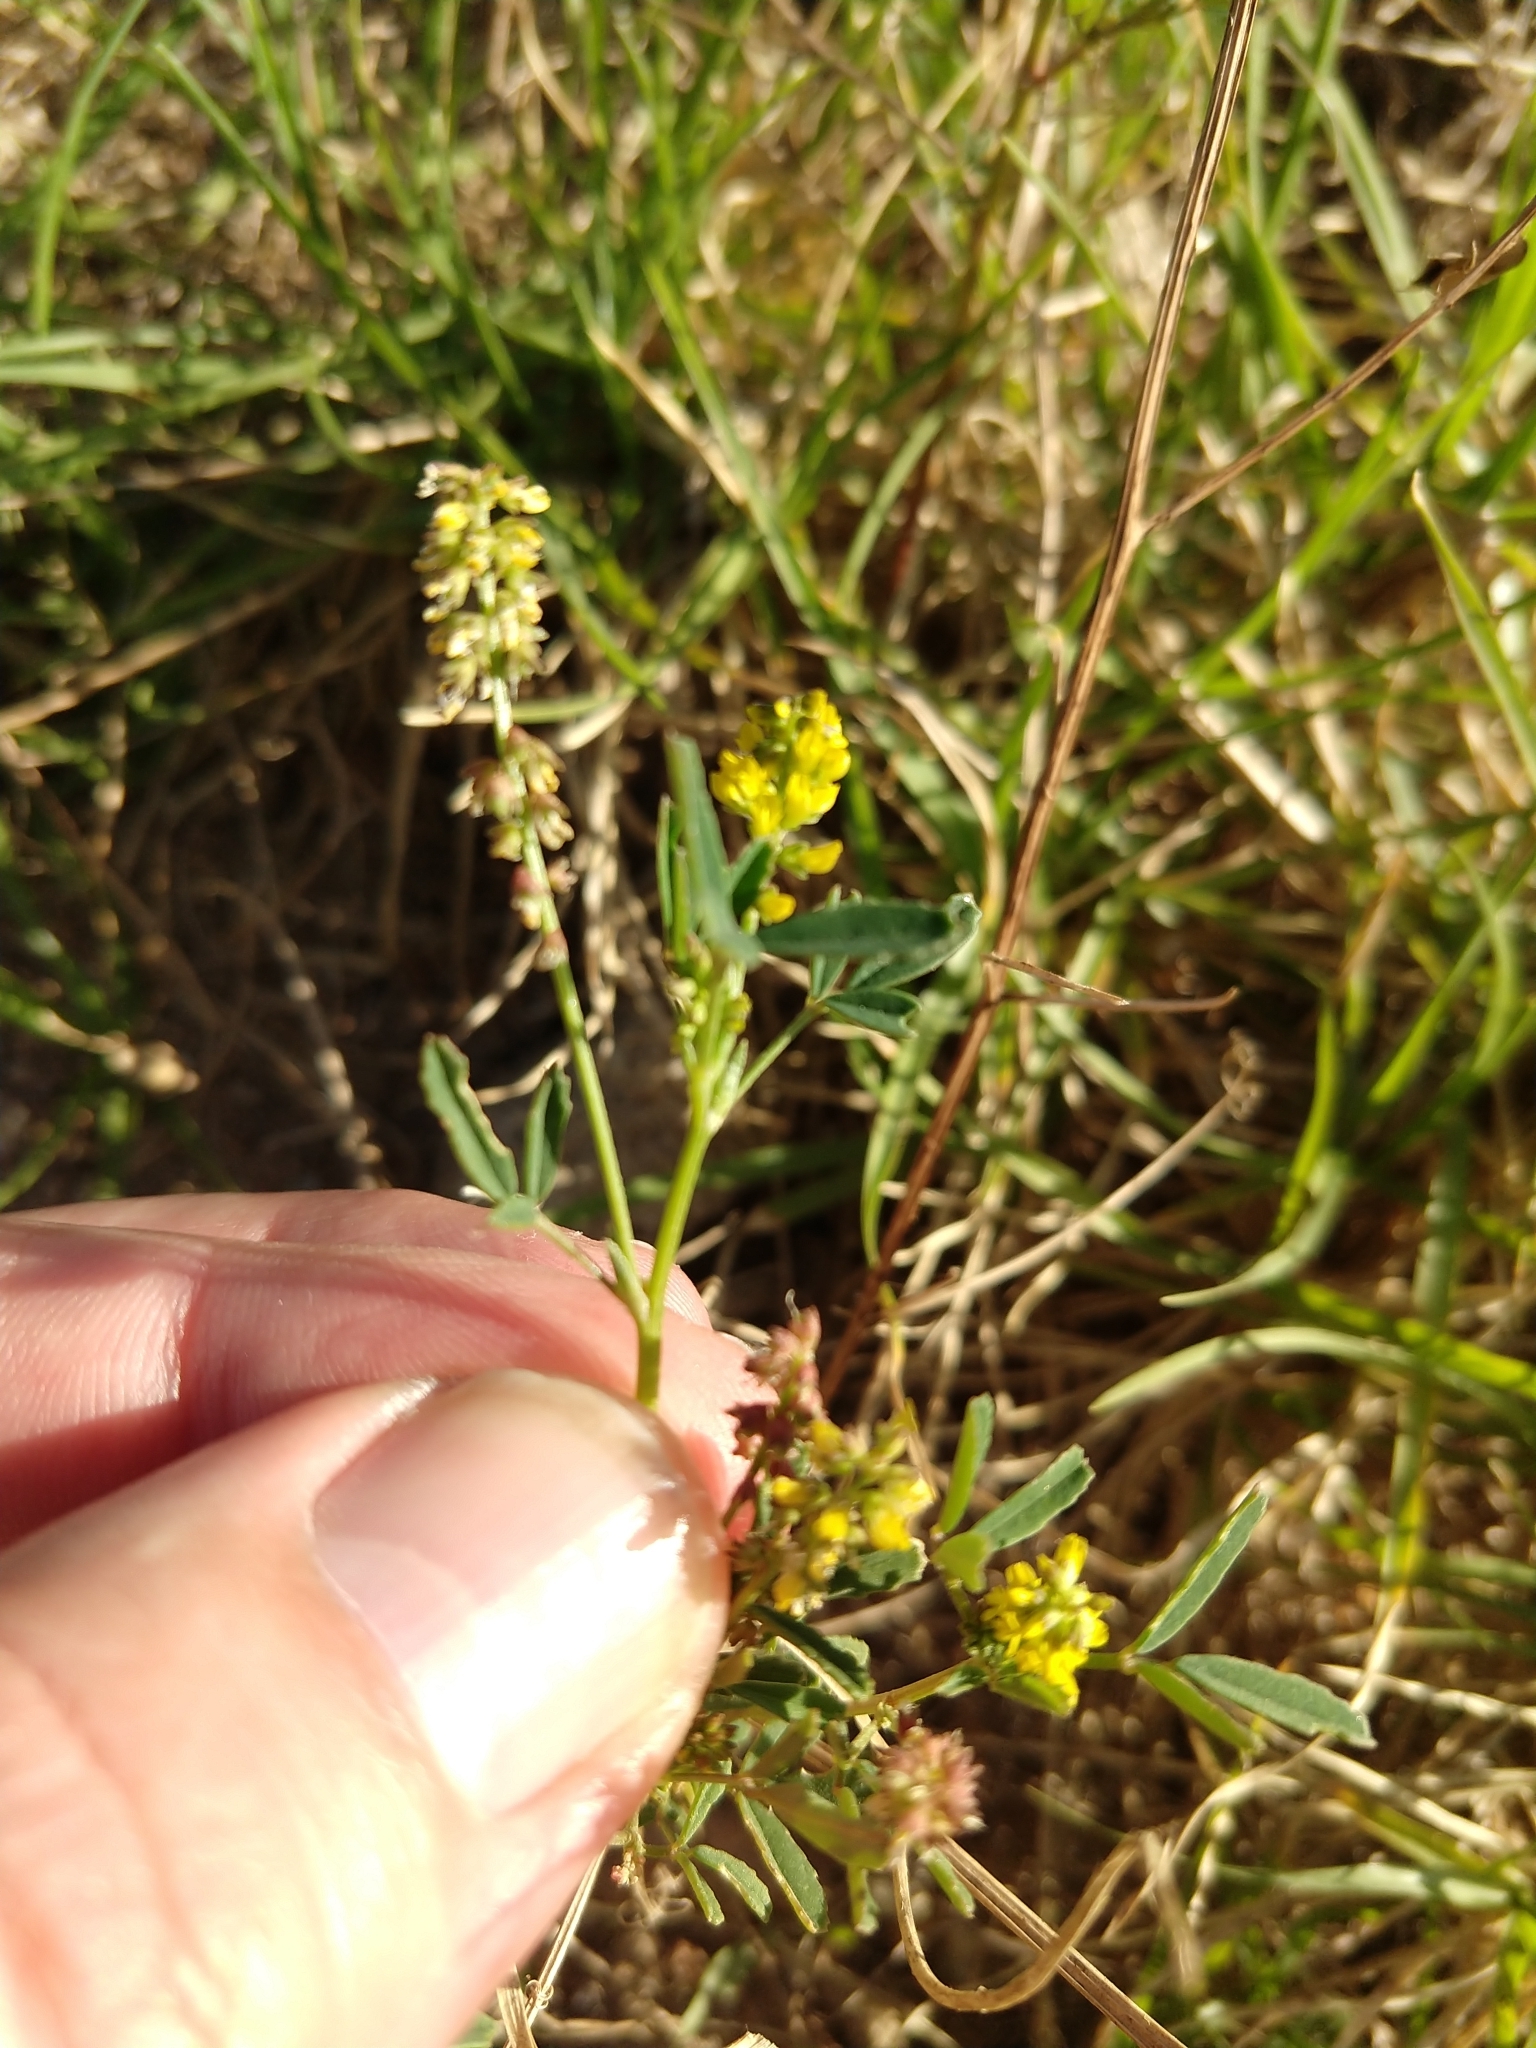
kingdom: Plantae
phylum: Tracheophyta
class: Magnoliopsida
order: Fabales
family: Fabaceae
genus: Melilotus
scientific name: Melilotus indicus
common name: Small melilot
